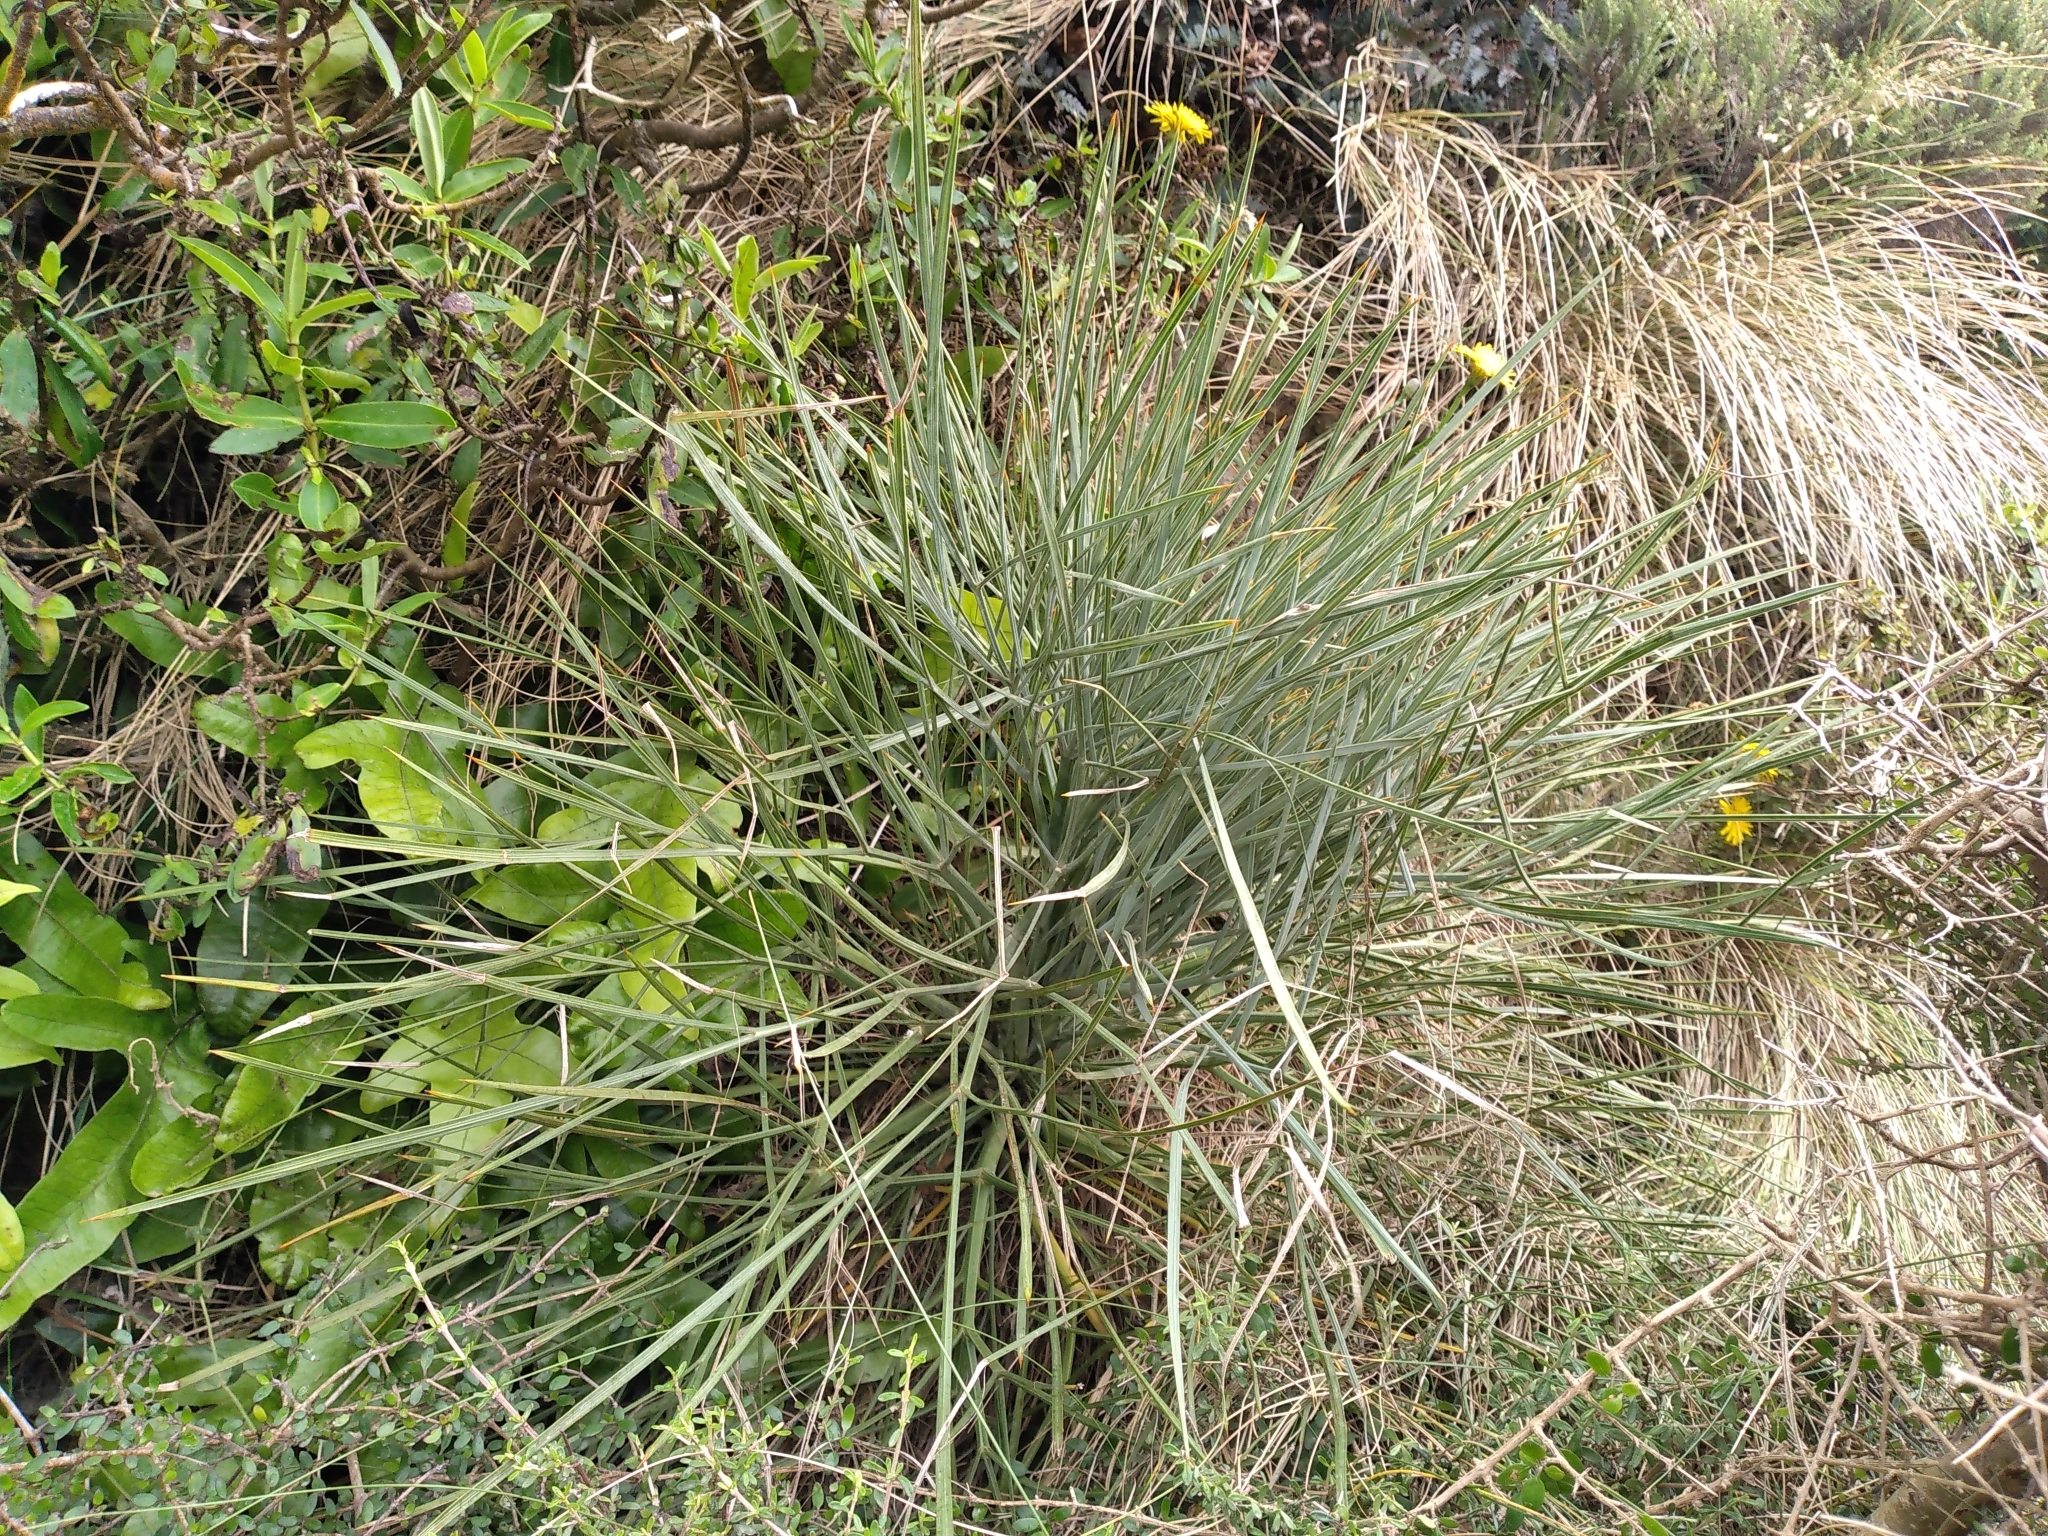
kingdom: Plantae
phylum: Tracheophyta
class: Magnoliopsida
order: Apiales
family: Apiaceae
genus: Aciphylla
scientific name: Aciphylla squarrosa
